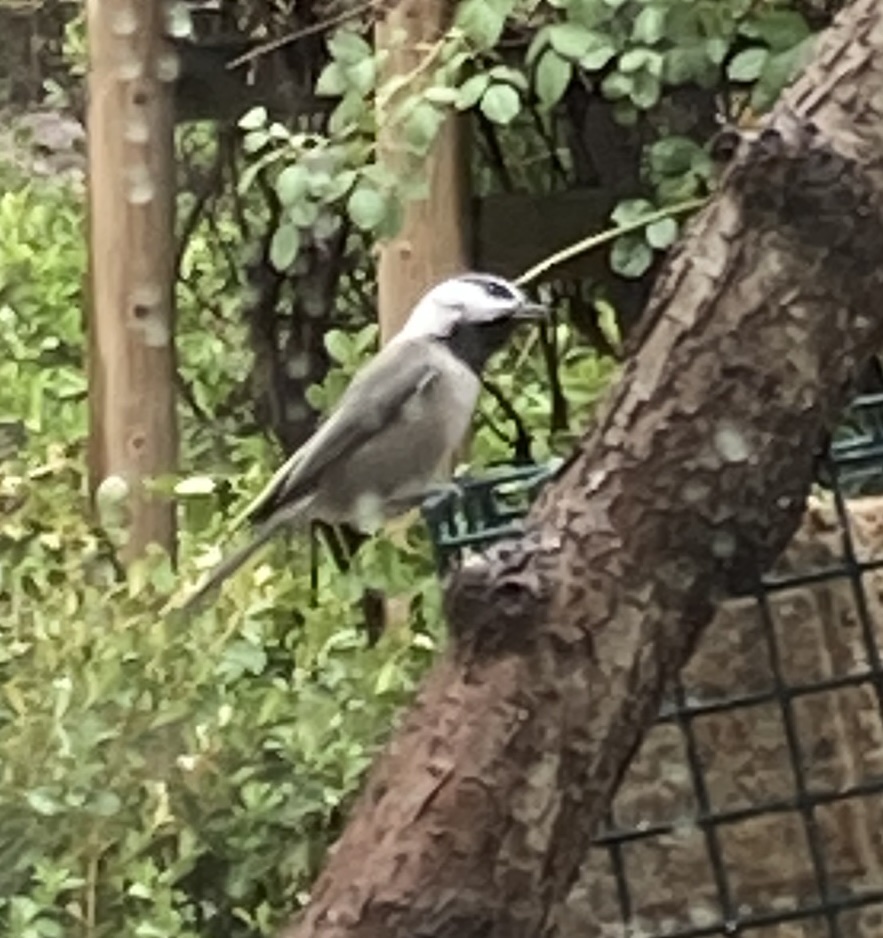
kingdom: Animalia
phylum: Chordata
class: Aves
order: Passeriformes
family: Paridae
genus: Poecile
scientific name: Poecile gambeli
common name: Mountain chickadee
